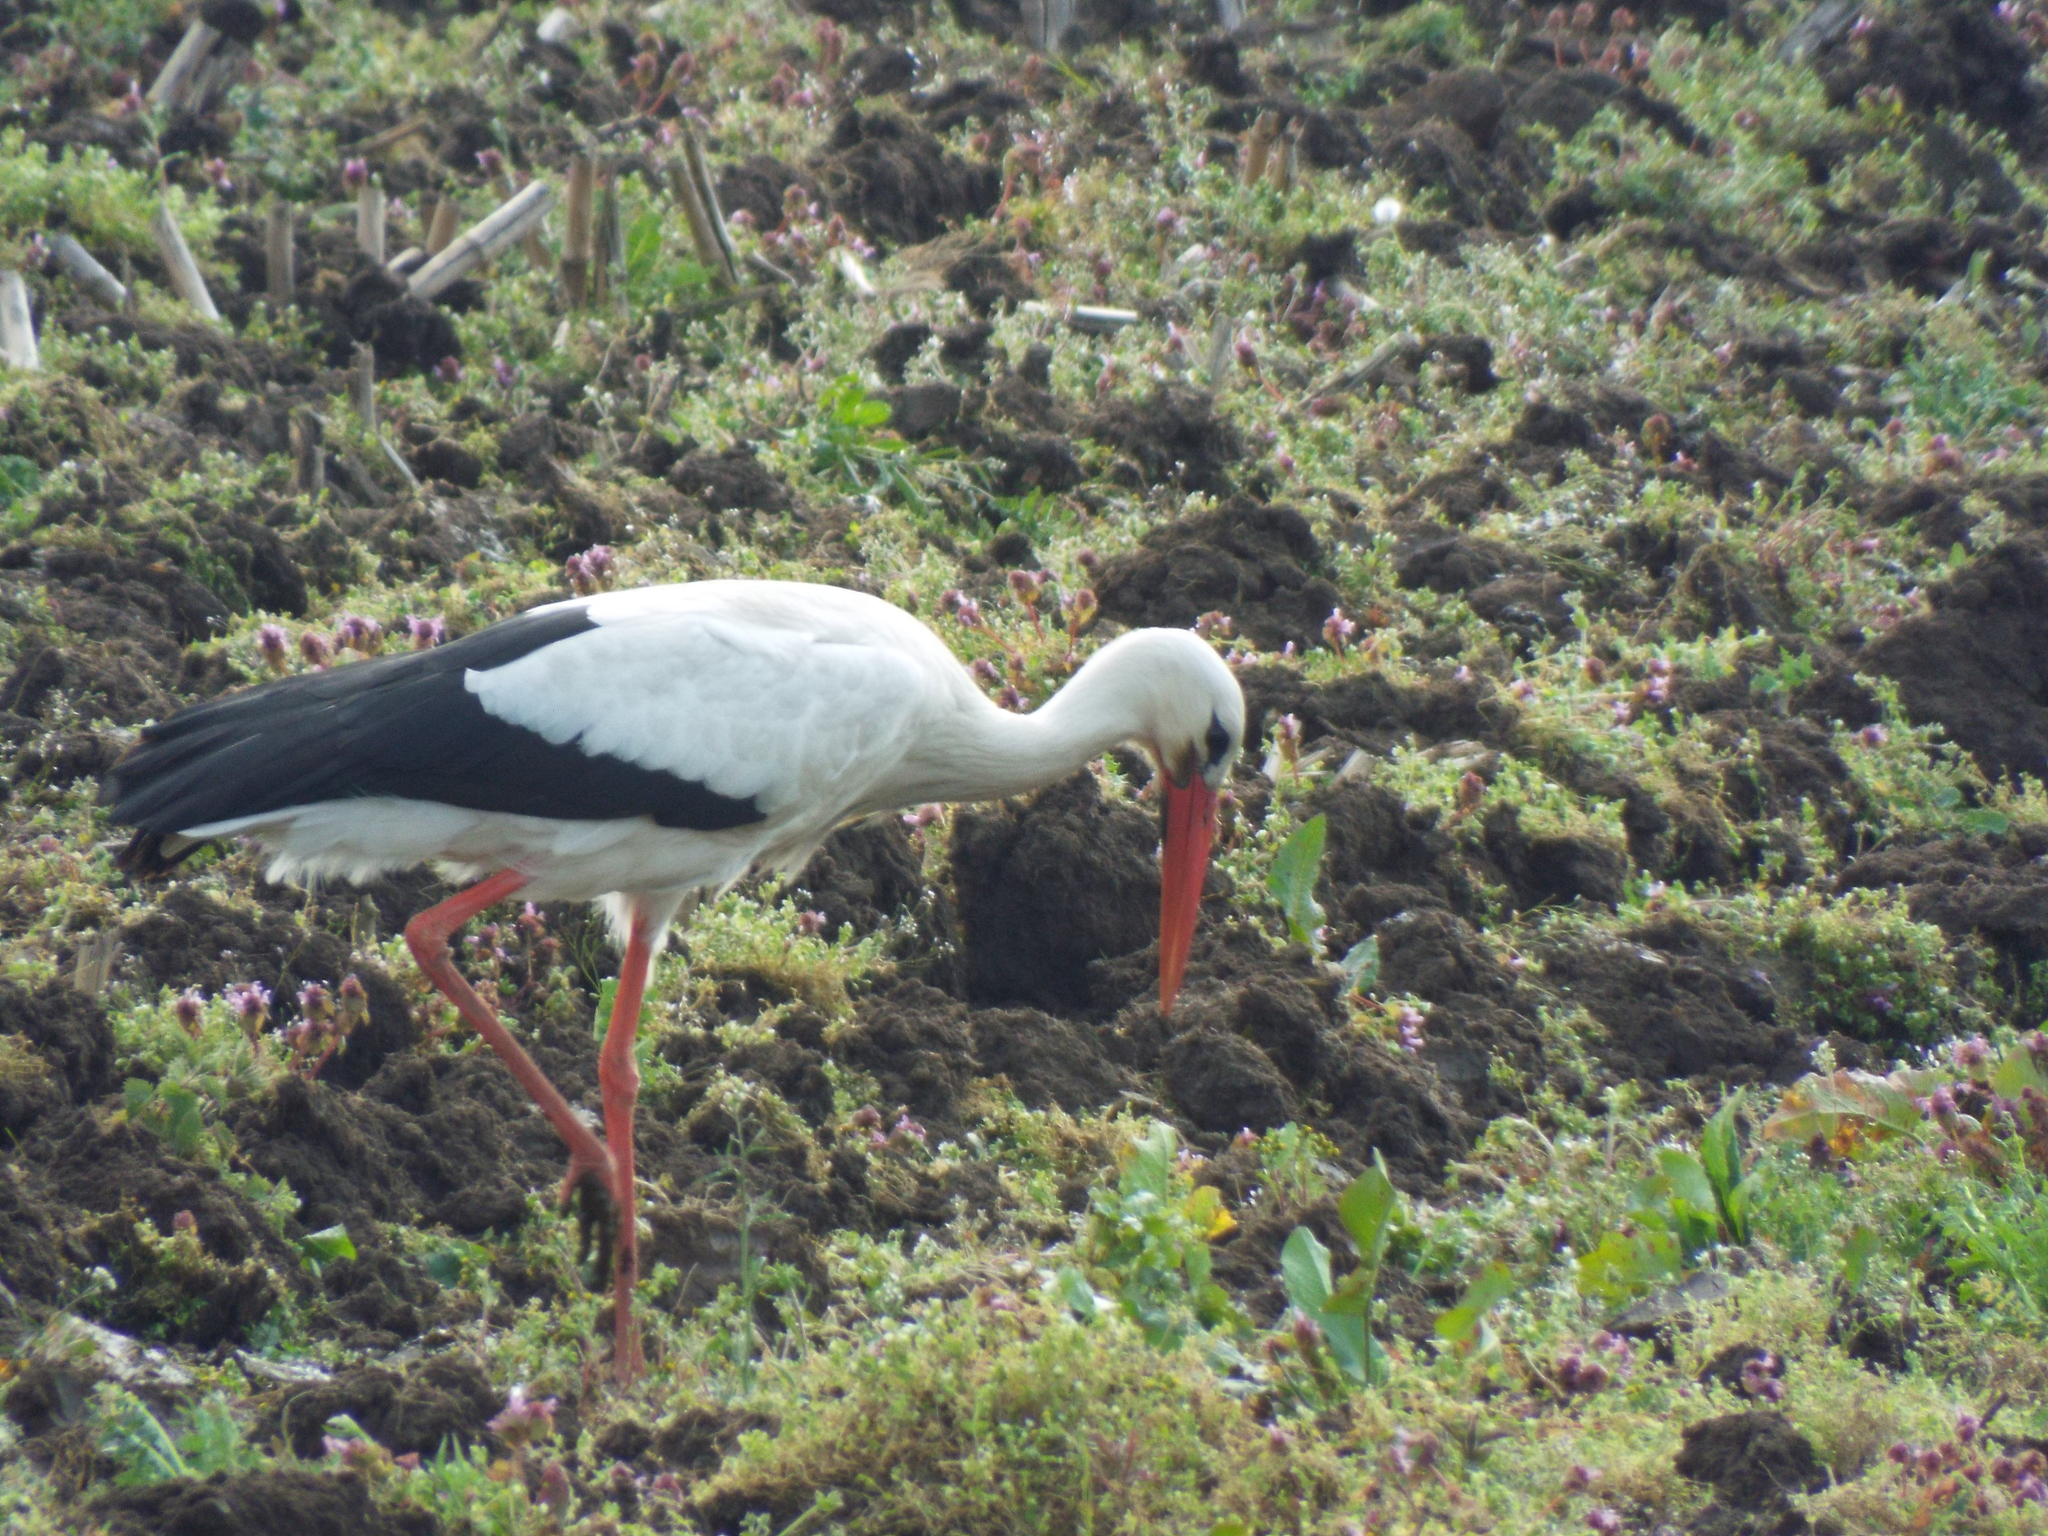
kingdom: Animalia
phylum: Chordata
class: Aves
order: Ciconiiformes
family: Ciconiidae
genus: Ciconia
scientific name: Ciconia ciconia
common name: White stork
